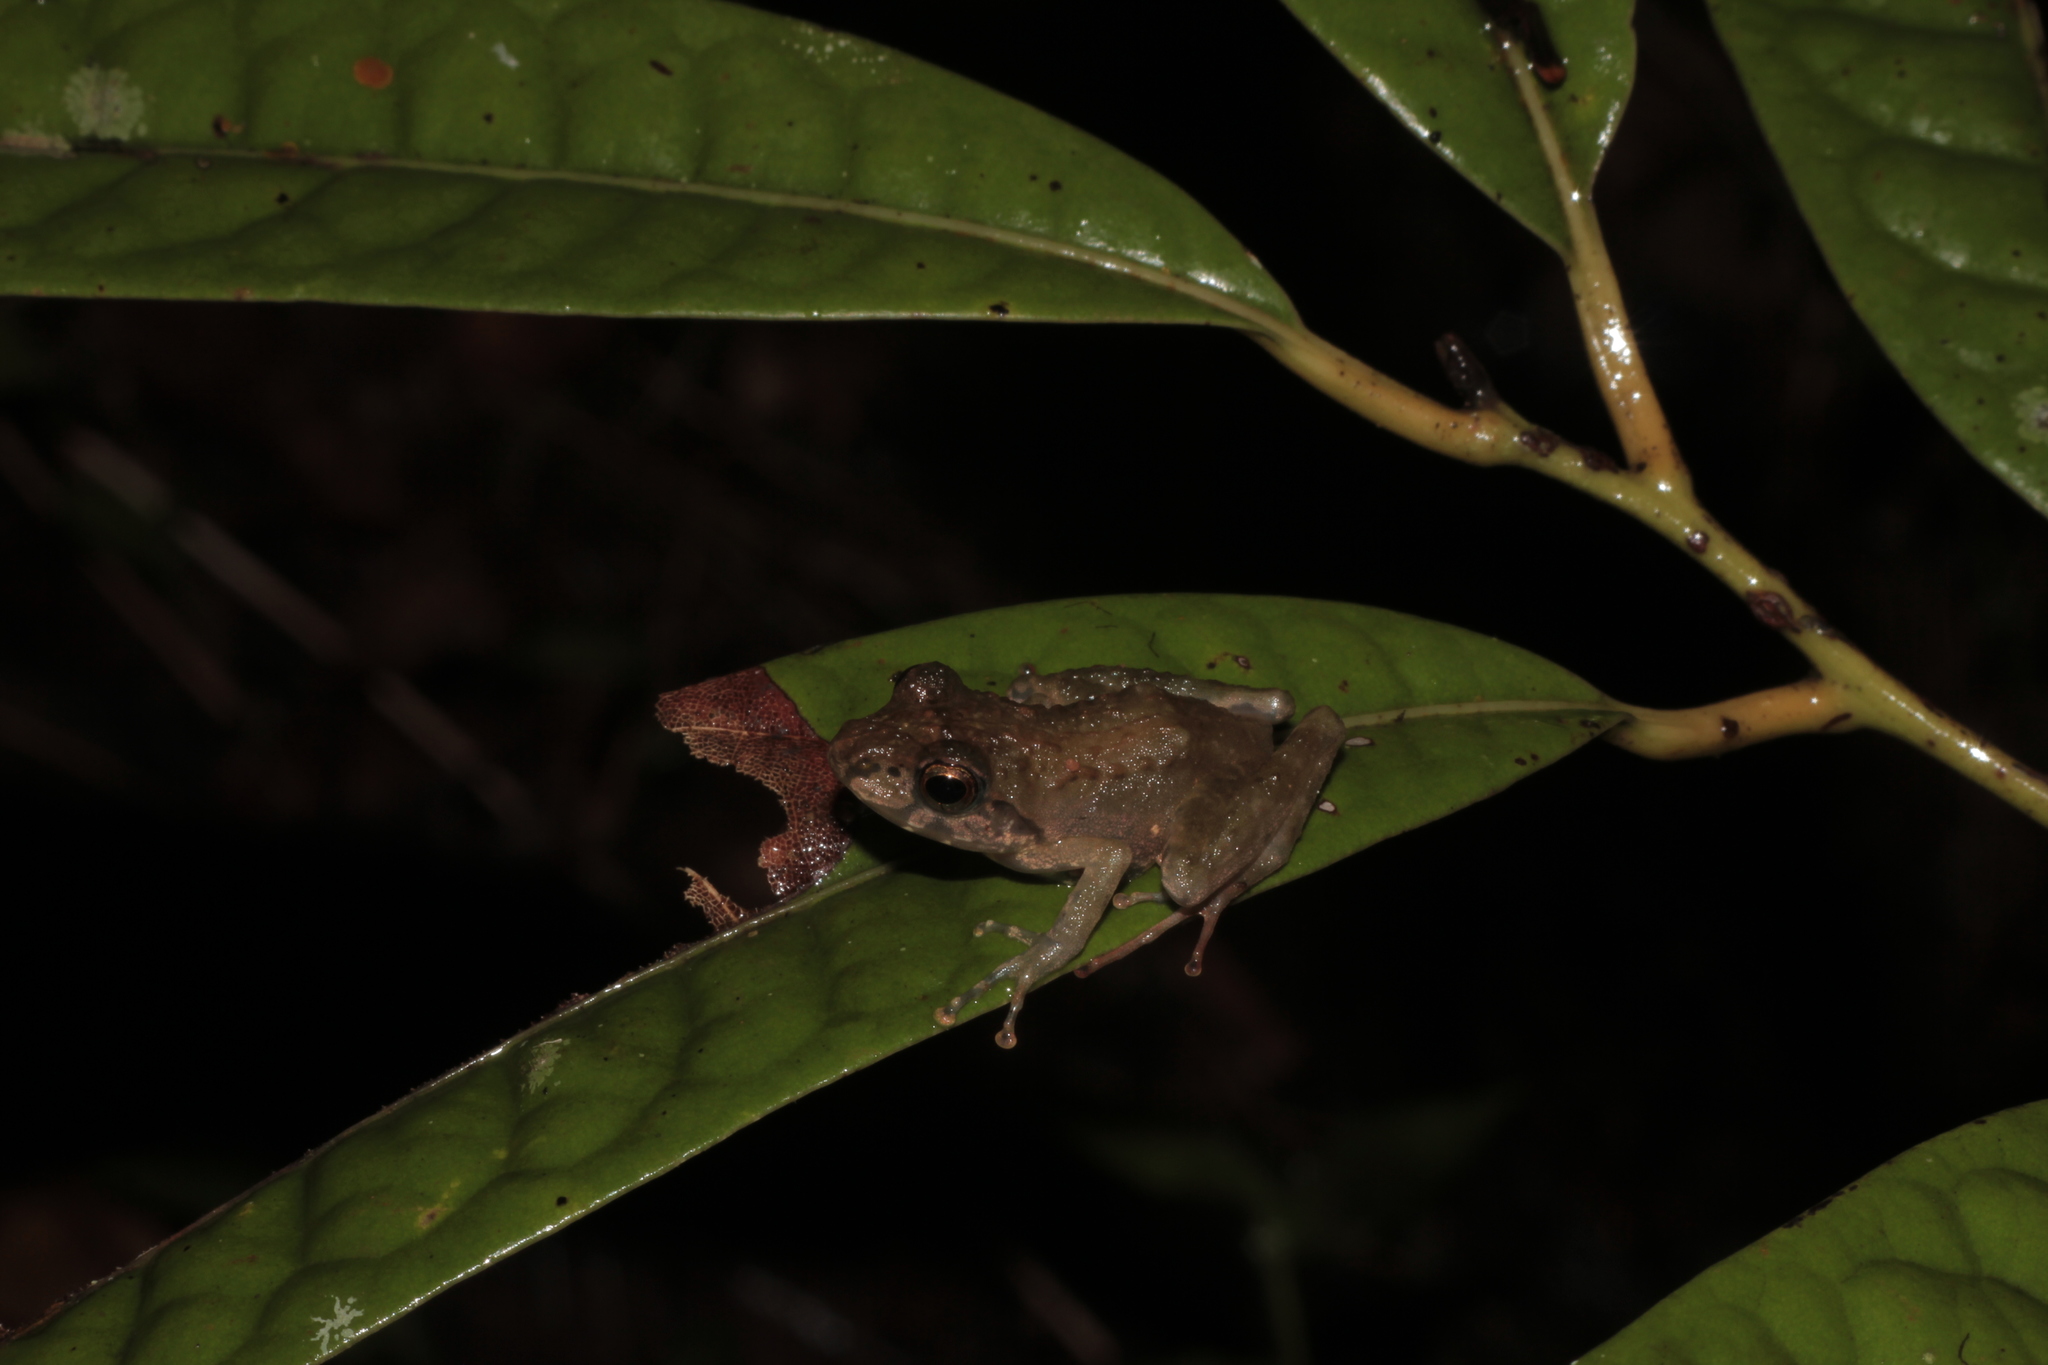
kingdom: Animalia
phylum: Chordata
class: Amphibia
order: Anura
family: Mantellidae
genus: Gephyromantis
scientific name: Gephyromantis boulengeri
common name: Boulenger's madagascar frog
